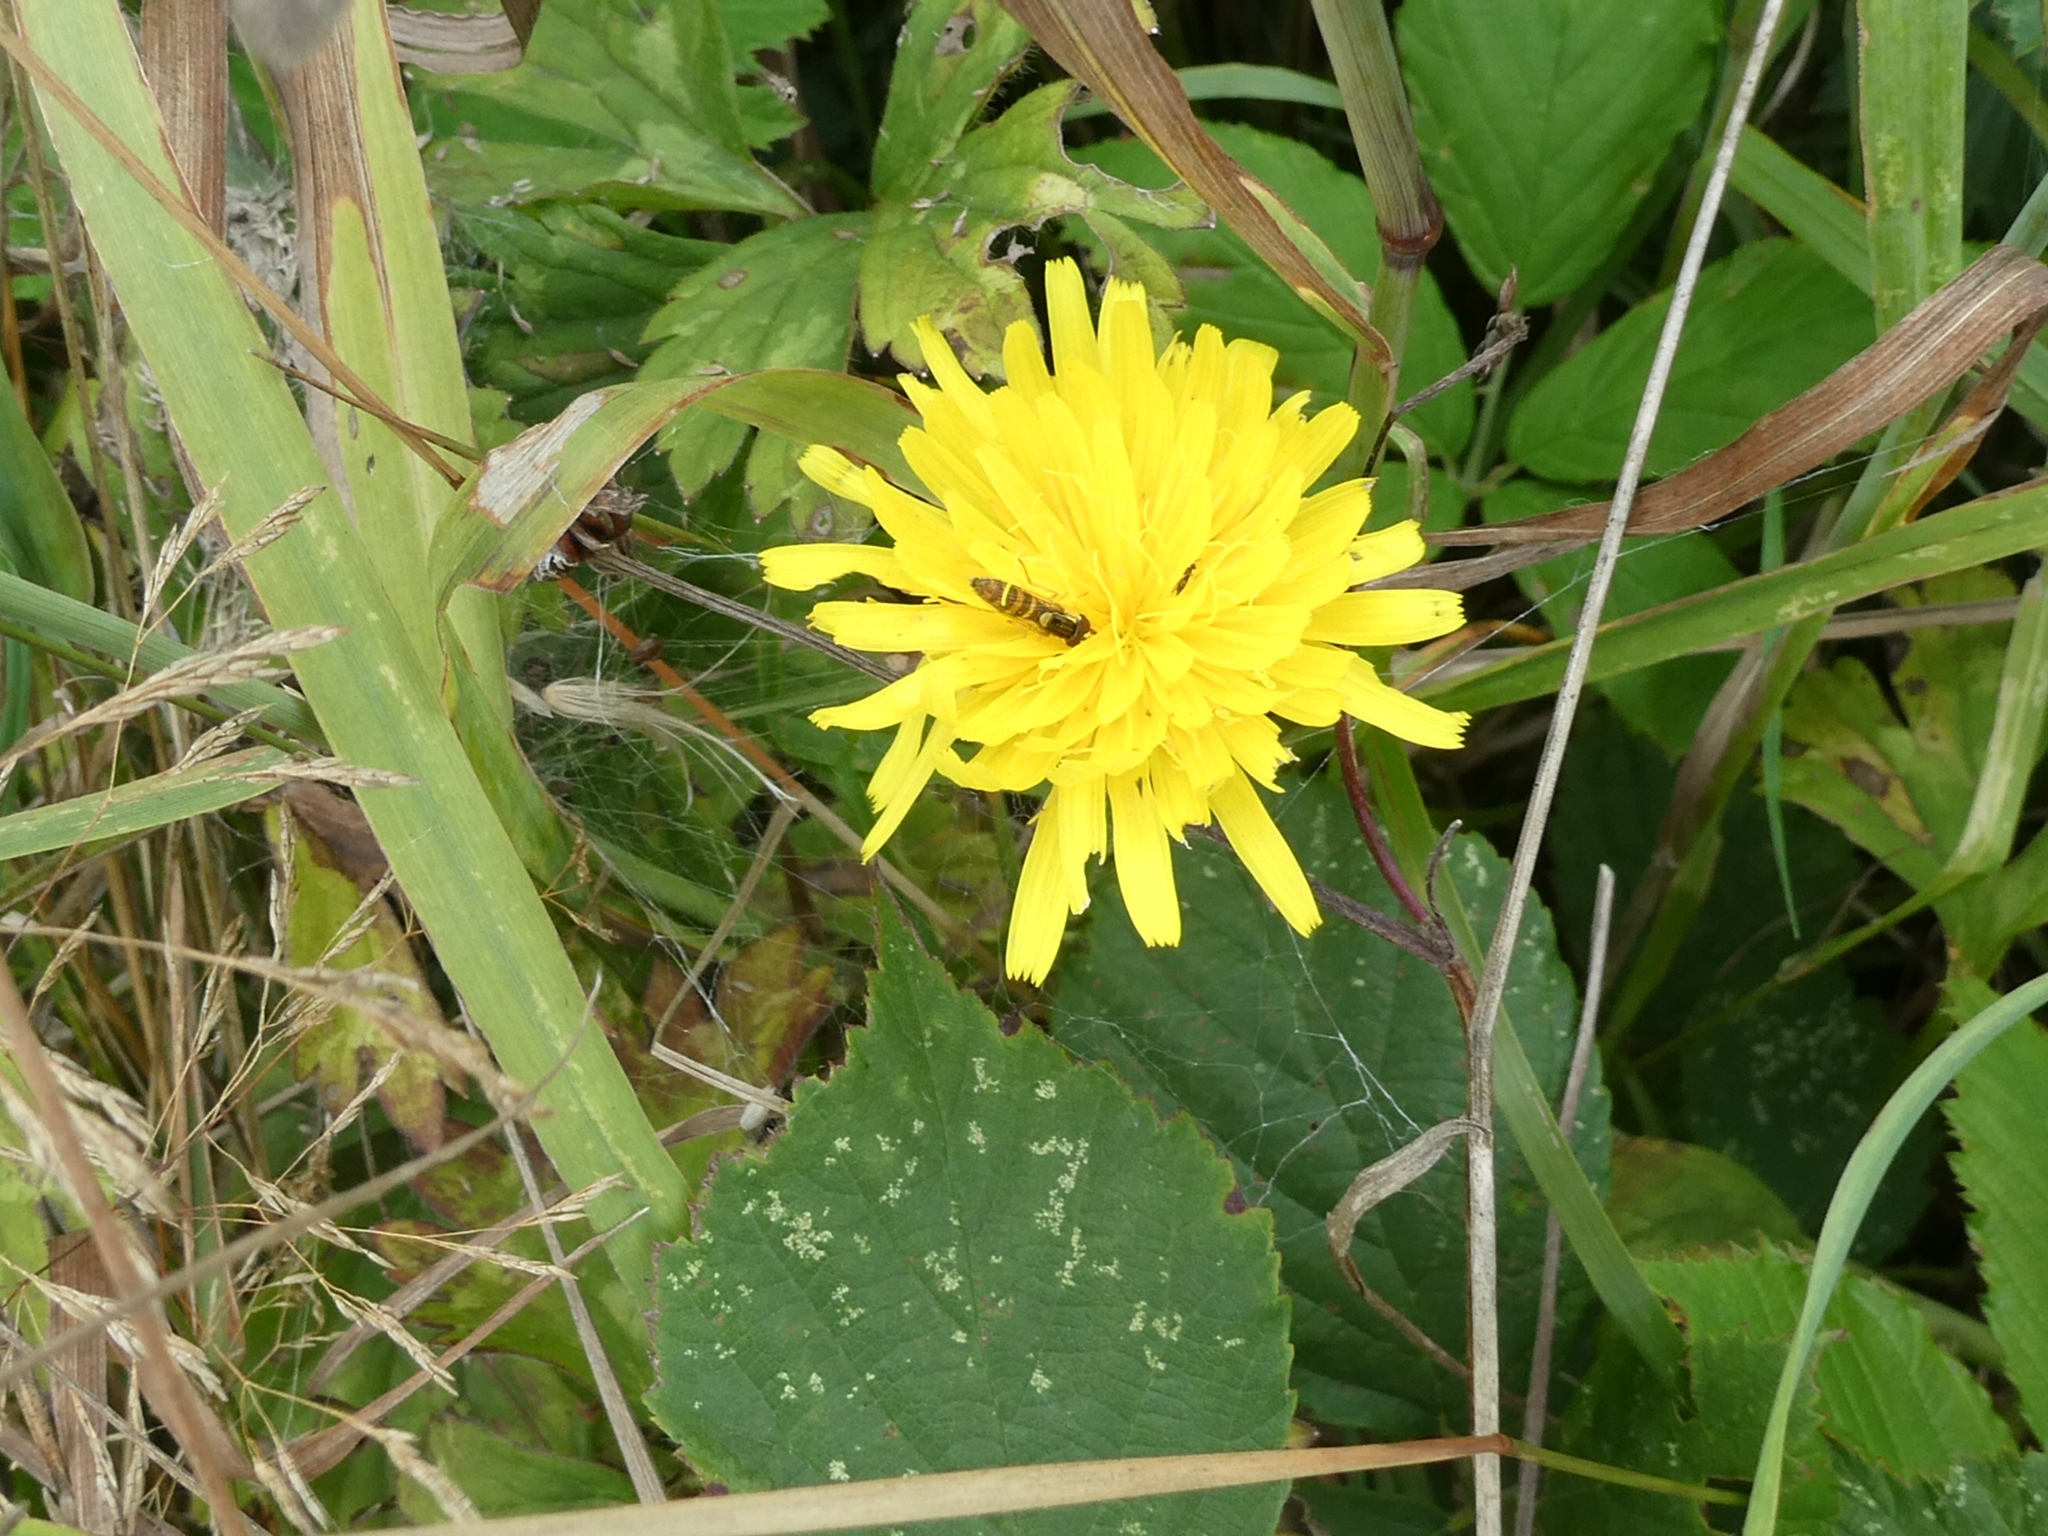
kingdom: Animalia
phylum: Arthropoda
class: Insecta
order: Diptera
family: Syrphidae
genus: Sphaerophoria
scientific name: Sphaerophoria
